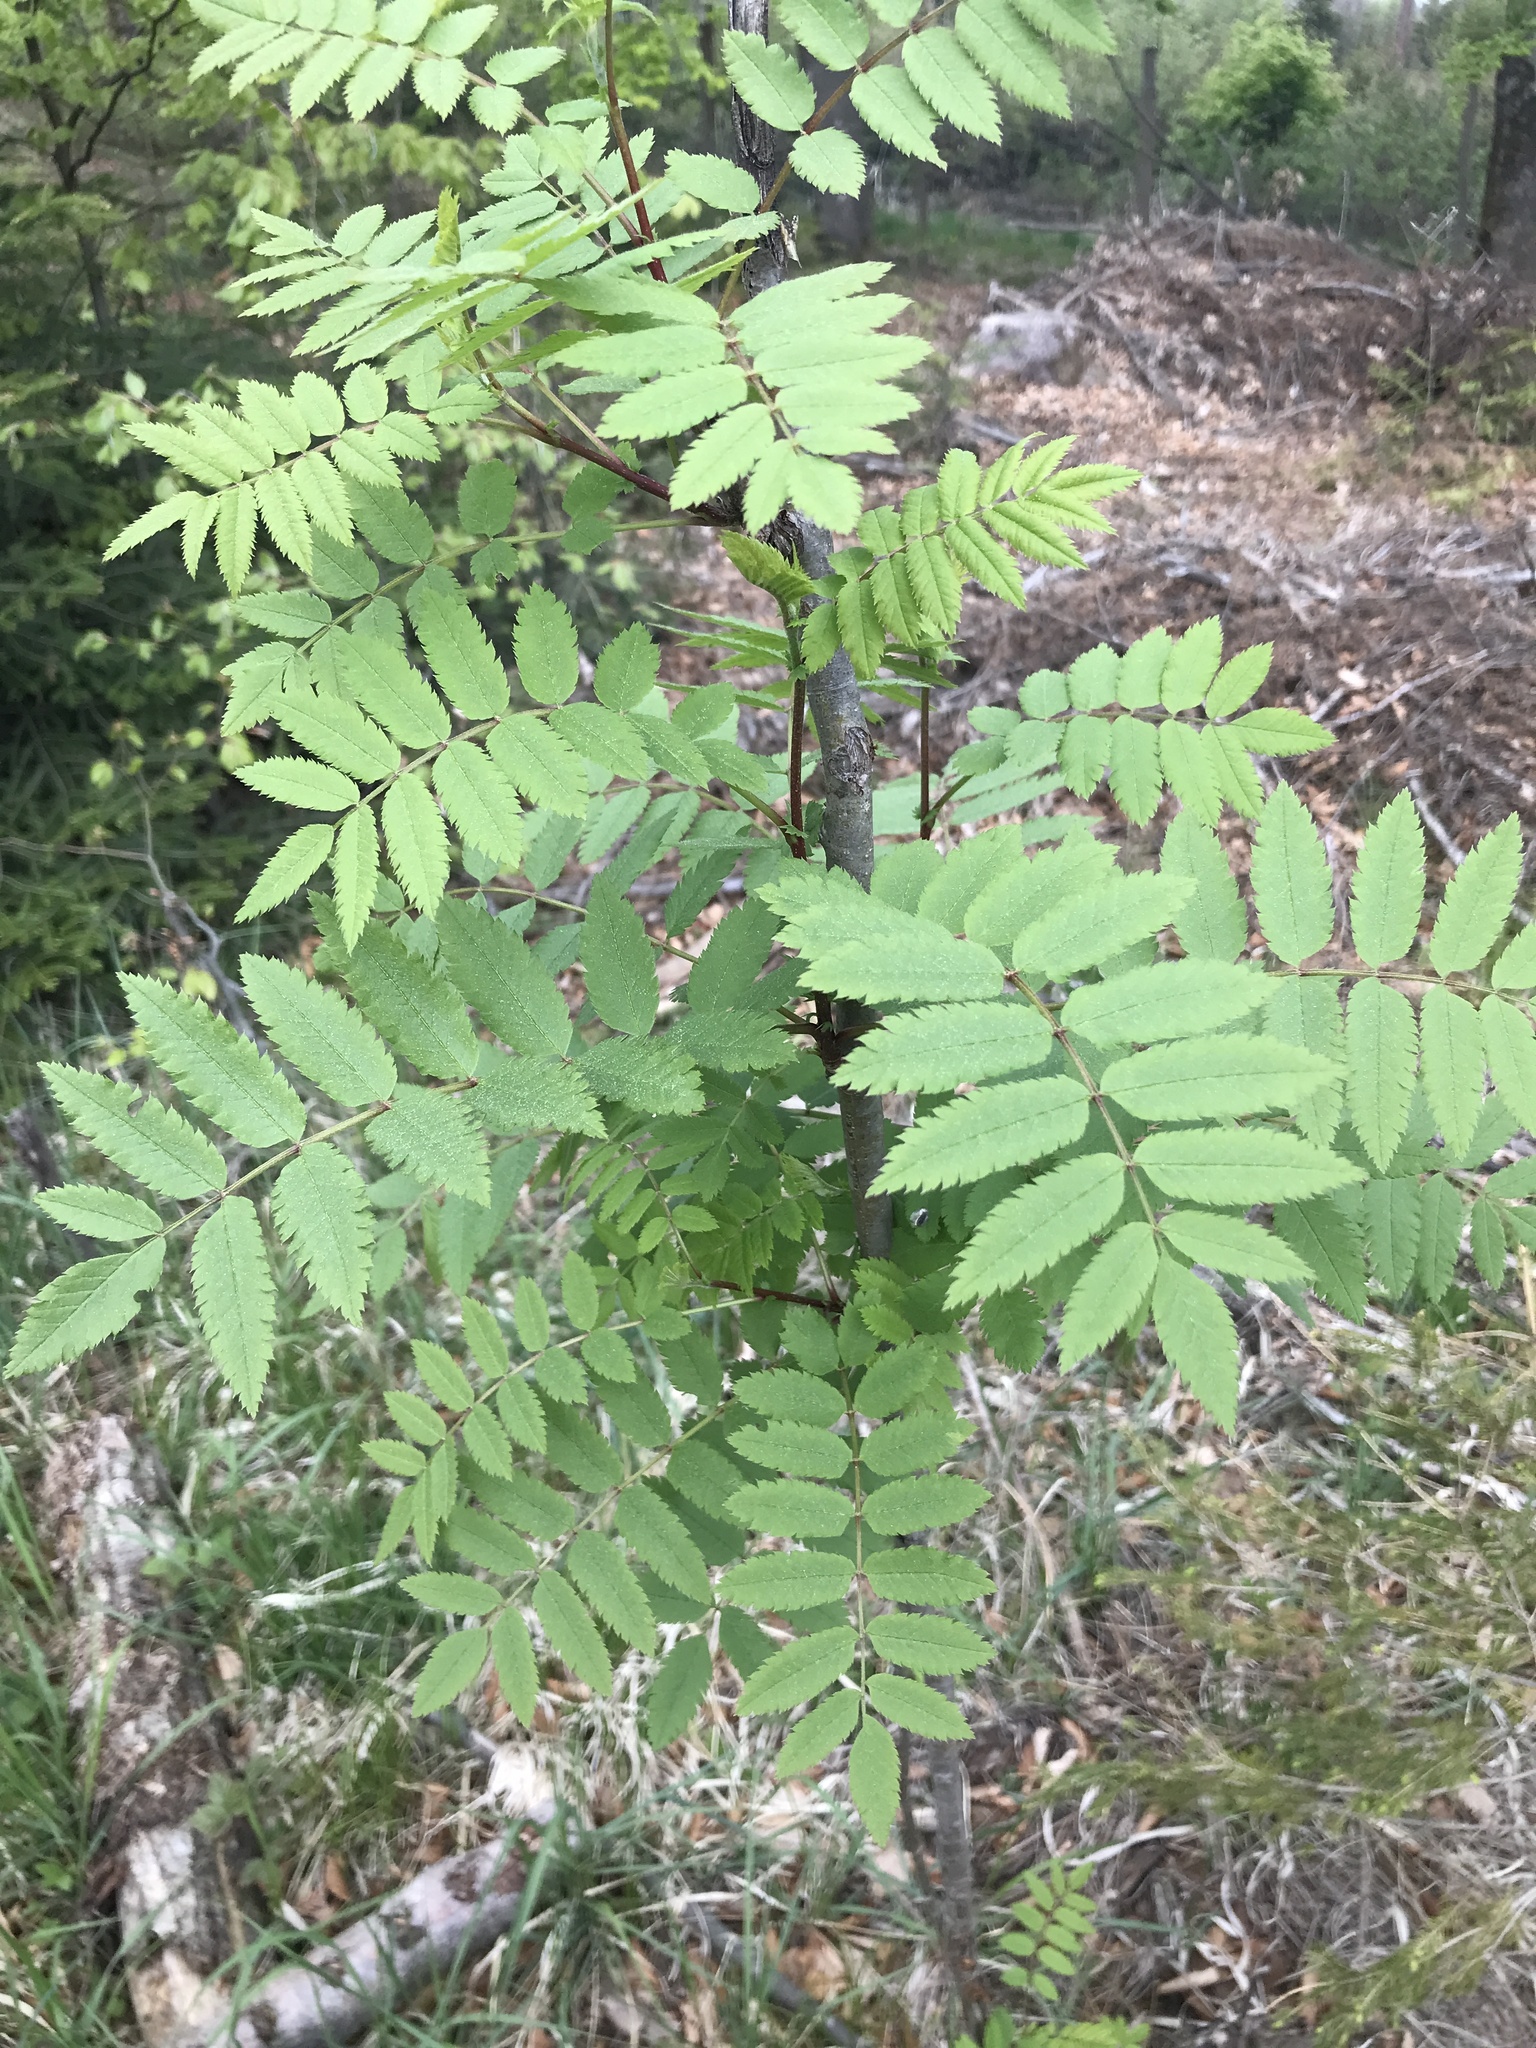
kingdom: Plantae
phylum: Tracheophyta
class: Magnoliopsida
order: Rosales
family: Rosaceae
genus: Sorbus
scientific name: Sorbus aucuparia
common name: Rowan
